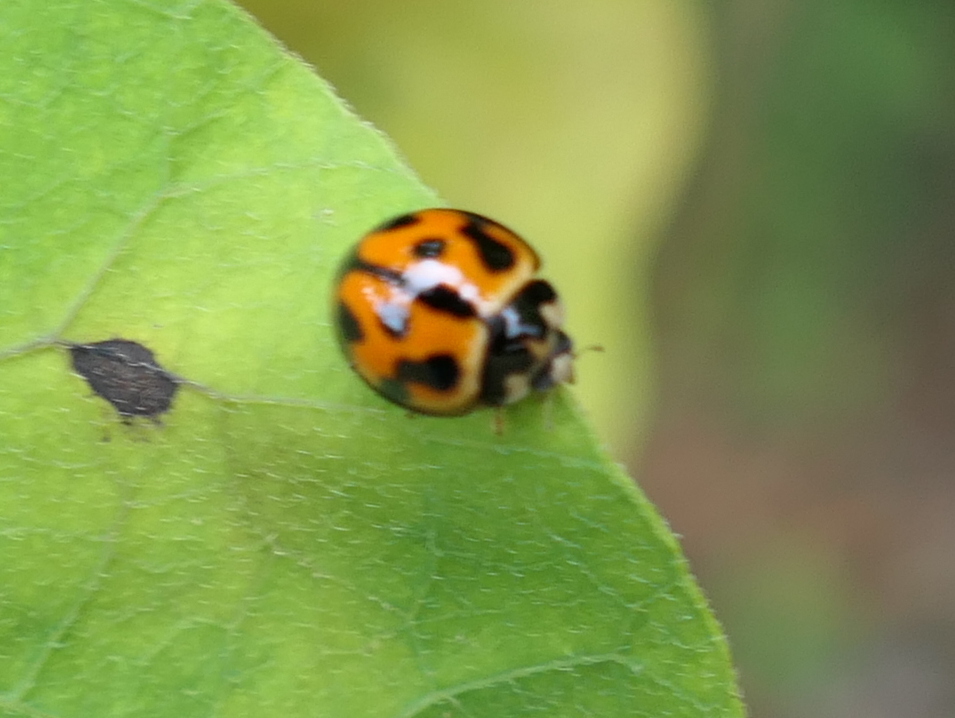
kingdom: Animalia
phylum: Arthropoda
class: Insecta
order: Coleoptera
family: Coccinellidae
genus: Coelophora
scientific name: Coelophora inaequalis
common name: Common australian lady beetle
